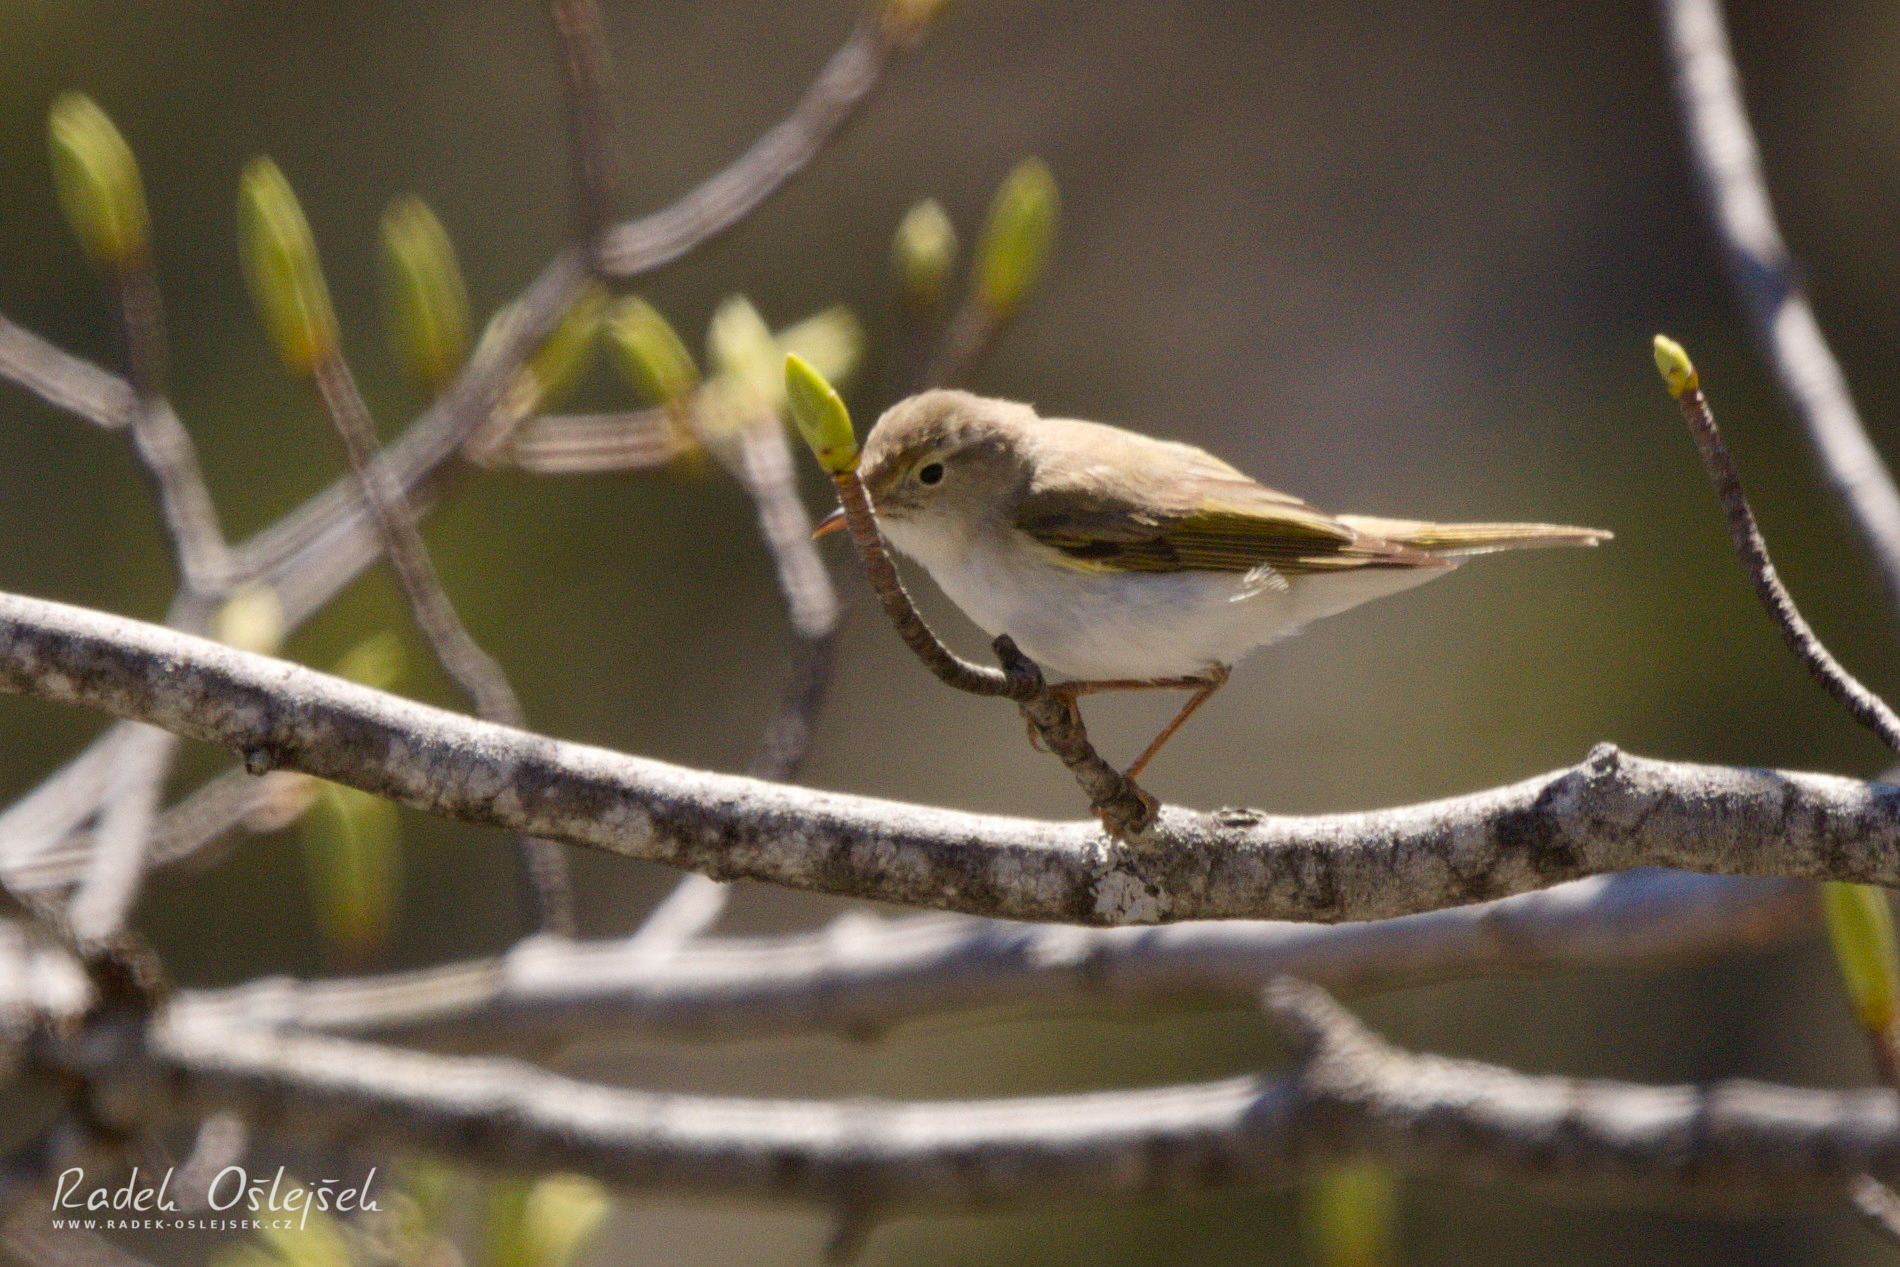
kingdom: Animalia
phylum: Chordata
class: Aves
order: Passeriformes
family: Phylloscopidae
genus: Phylloscopus
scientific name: Phylloscopus bonelli
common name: Western bonelli's warbler
